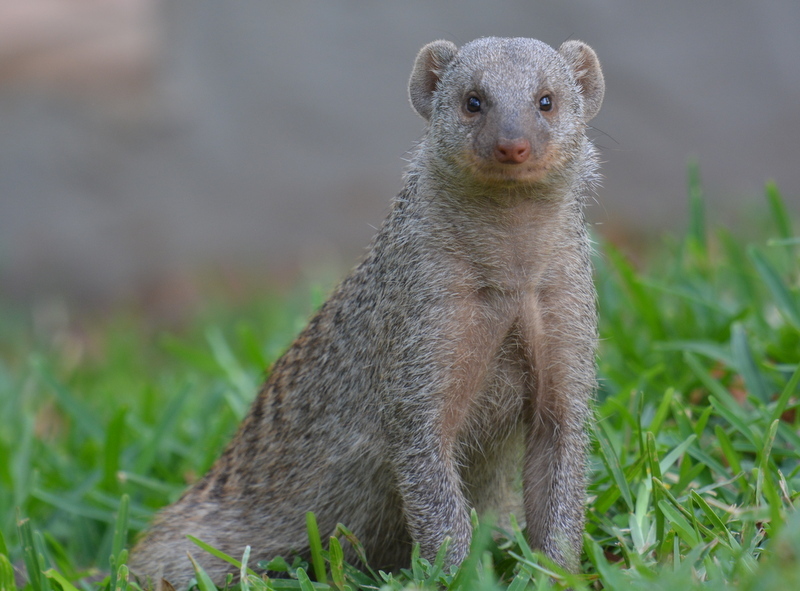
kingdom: Animalia
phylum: Chordata
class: Mammalia
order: Carnivora
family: Herpestidae
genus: Mungos
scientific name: Mungos mungo
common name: Banded mongoose
